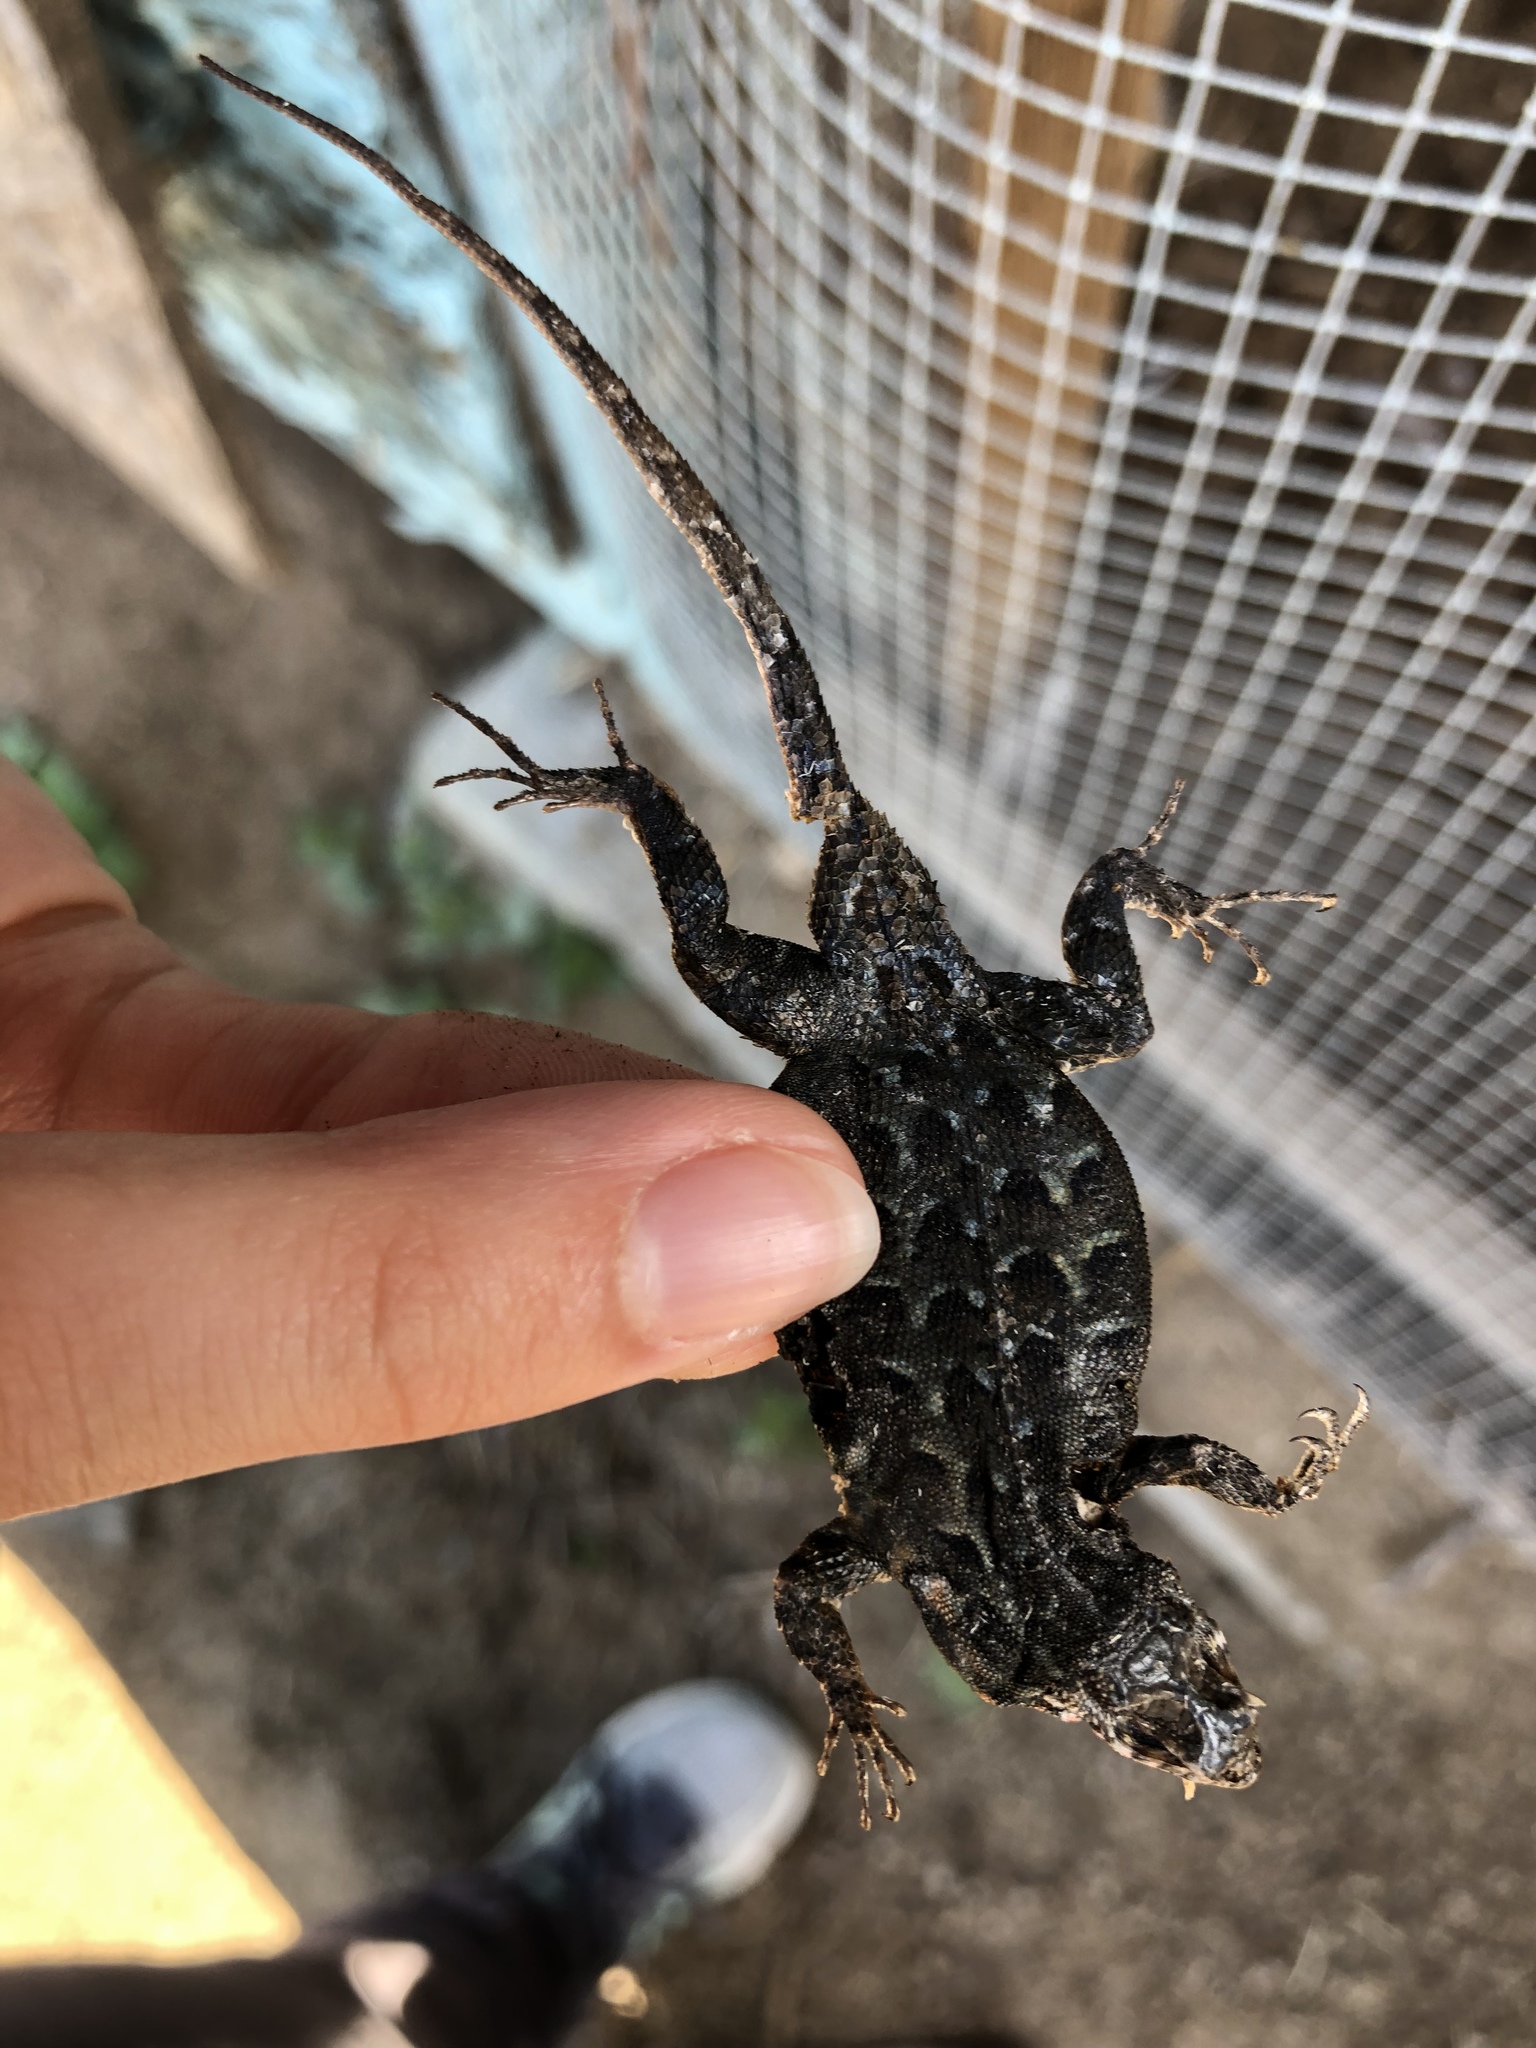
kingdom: Animalia
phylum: Chordata
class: Squamata
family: Phrynosomatidae
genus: Uta
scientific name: Uta stansburiana
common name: Side-blotched lizard
